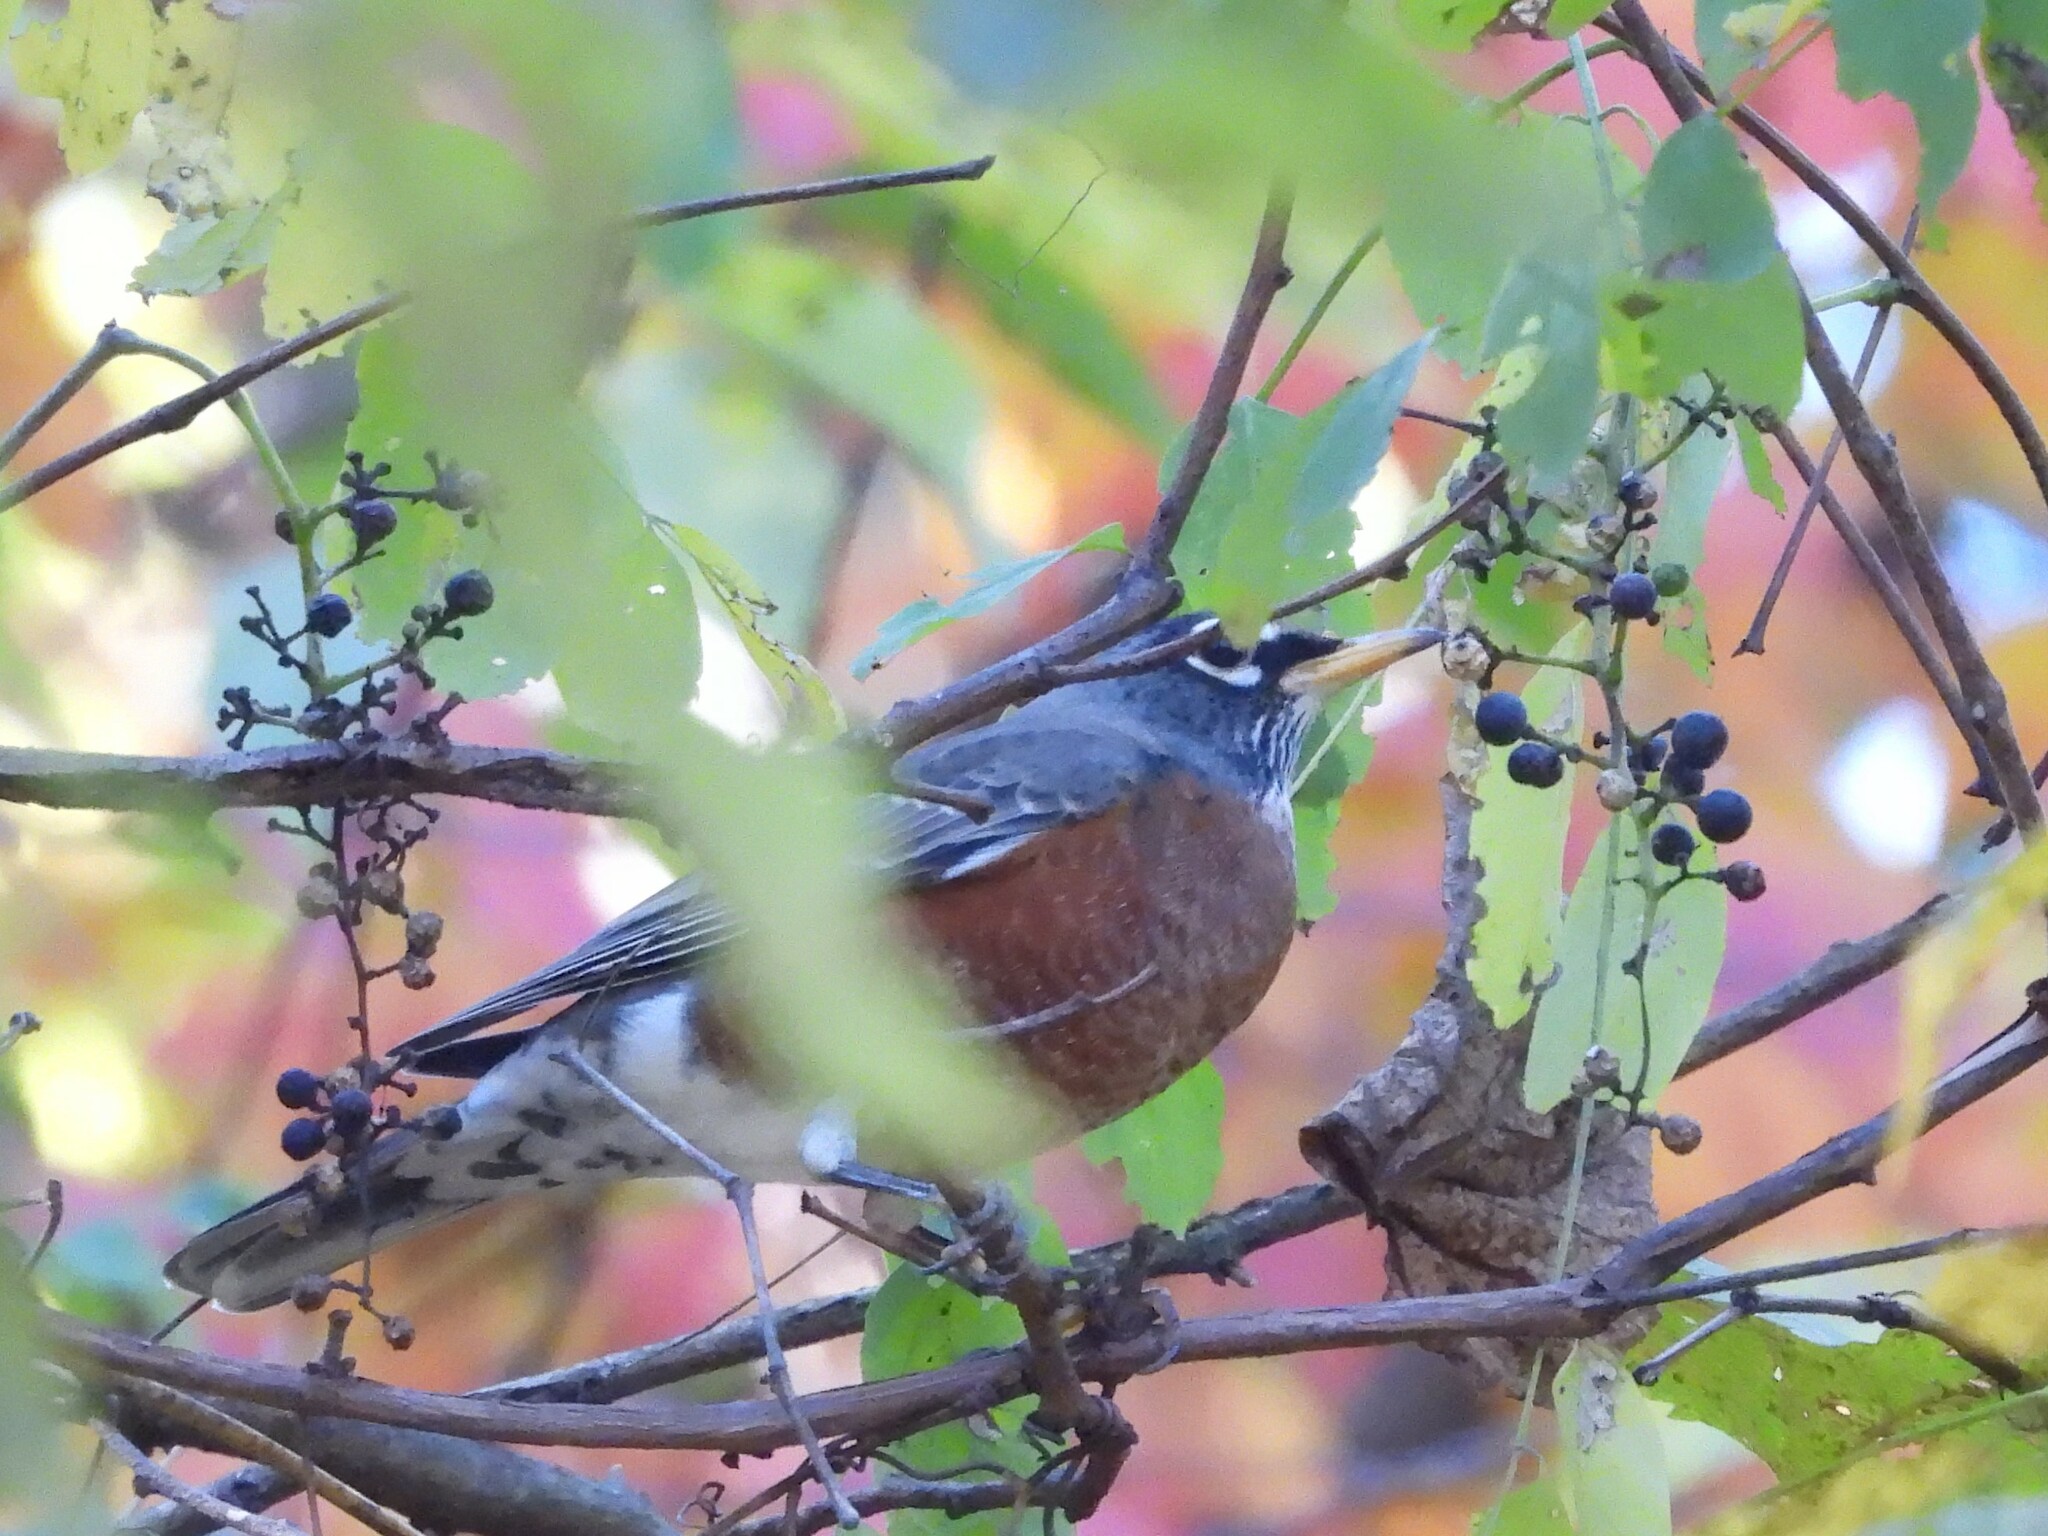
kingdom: Animalia
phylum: Chordata
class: Aves
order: Passeriformes
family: Turdidae
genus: Turdus
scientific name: Turdus migratorius
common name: American robin
